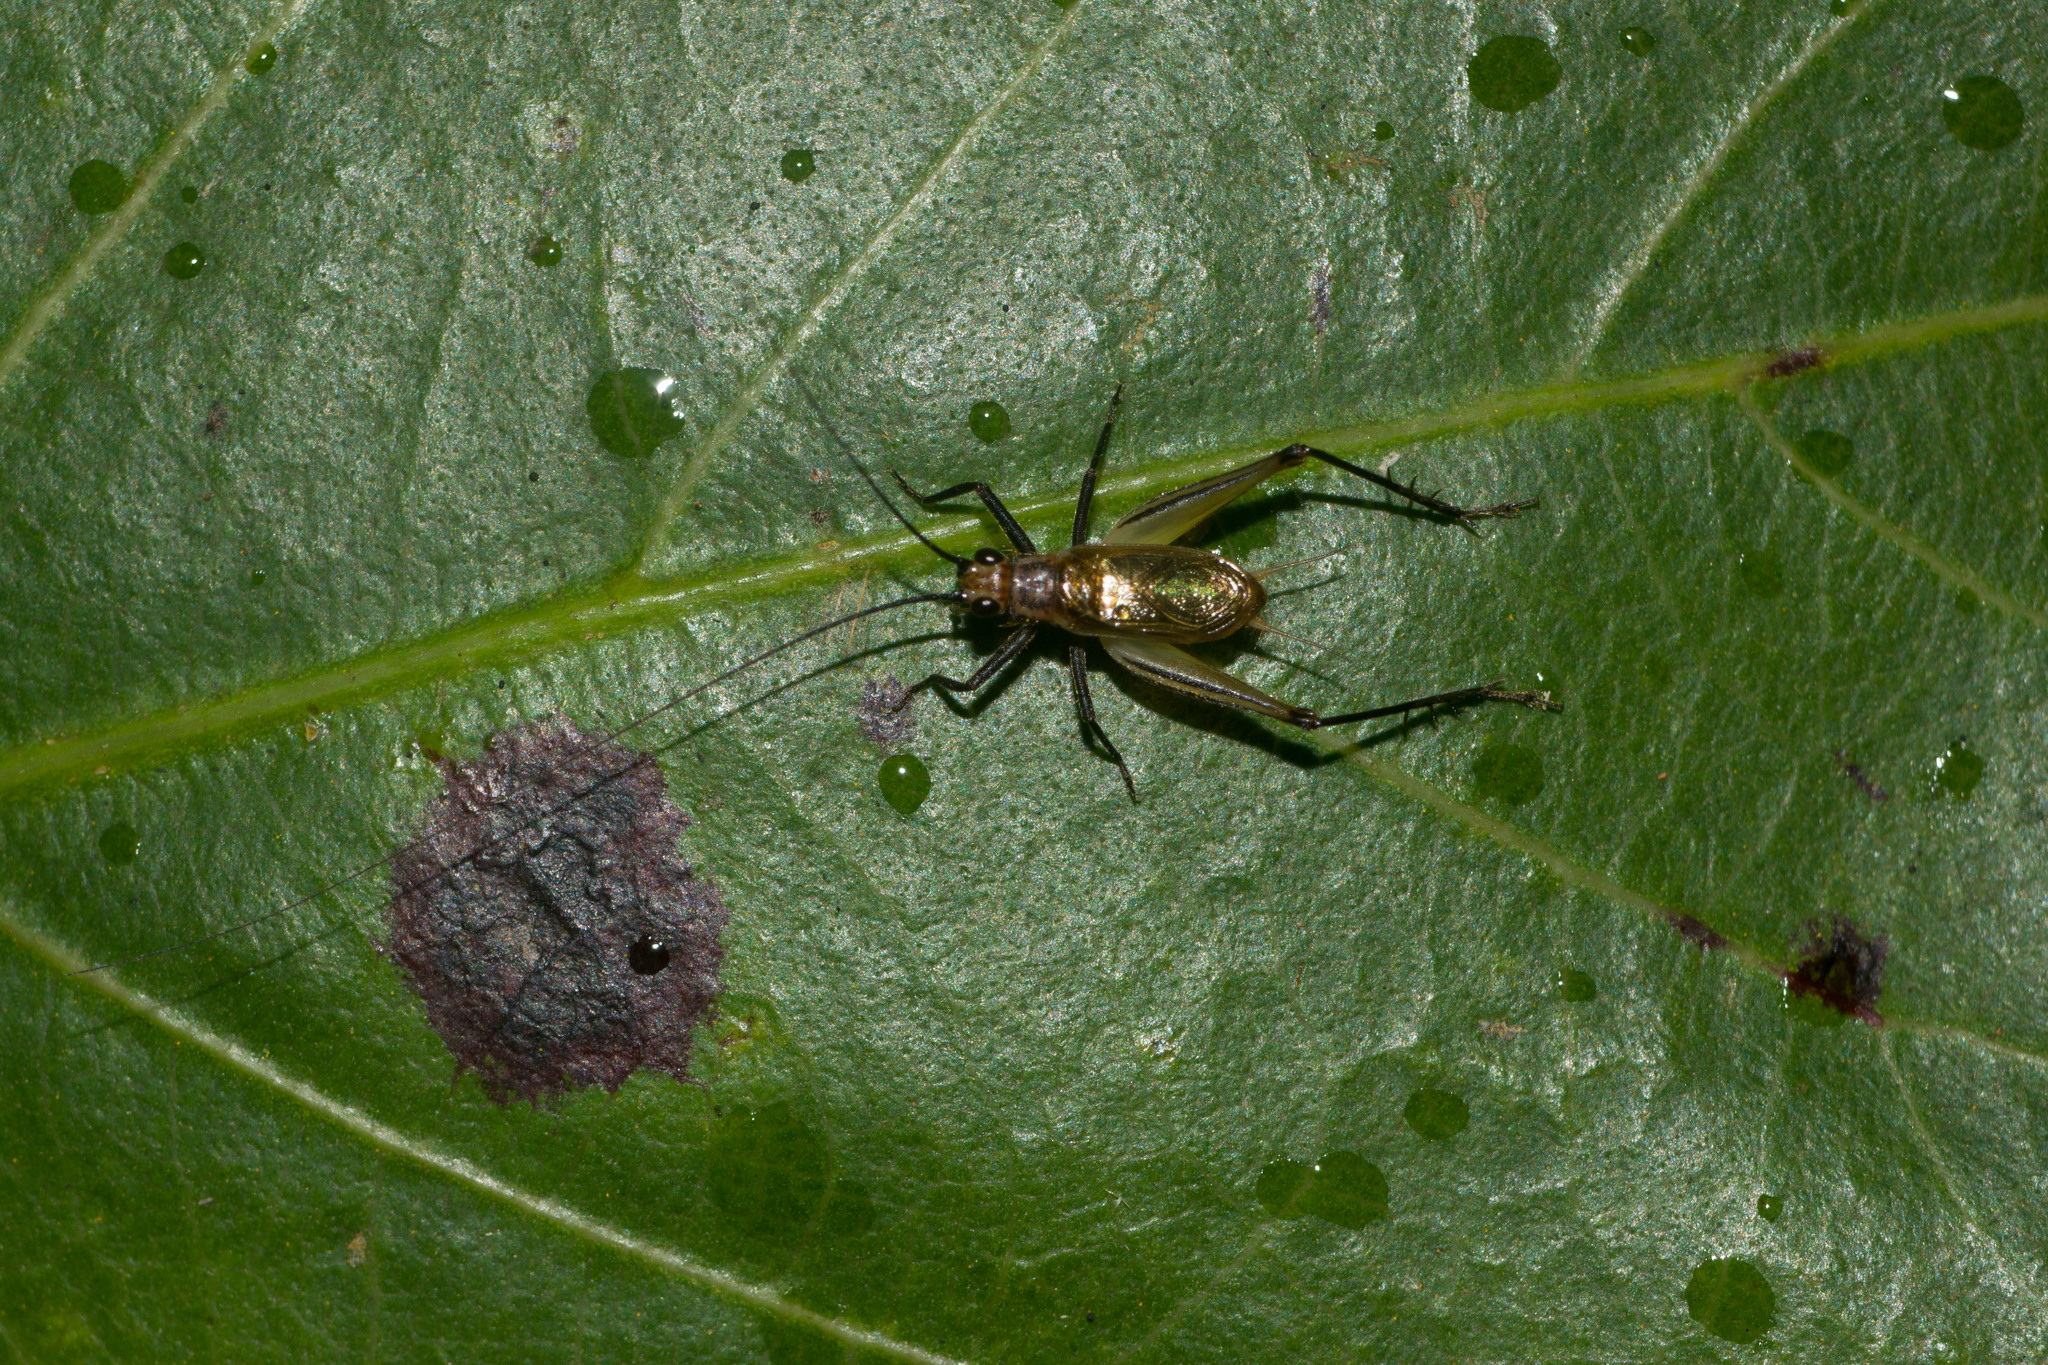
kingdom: Animalia
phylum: Arthropoda
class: Insecta
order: Orthoptera
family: Trigonidiidae
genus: Nanixipha
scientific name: Nanixipha nahoa
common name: Truncated true katydid
